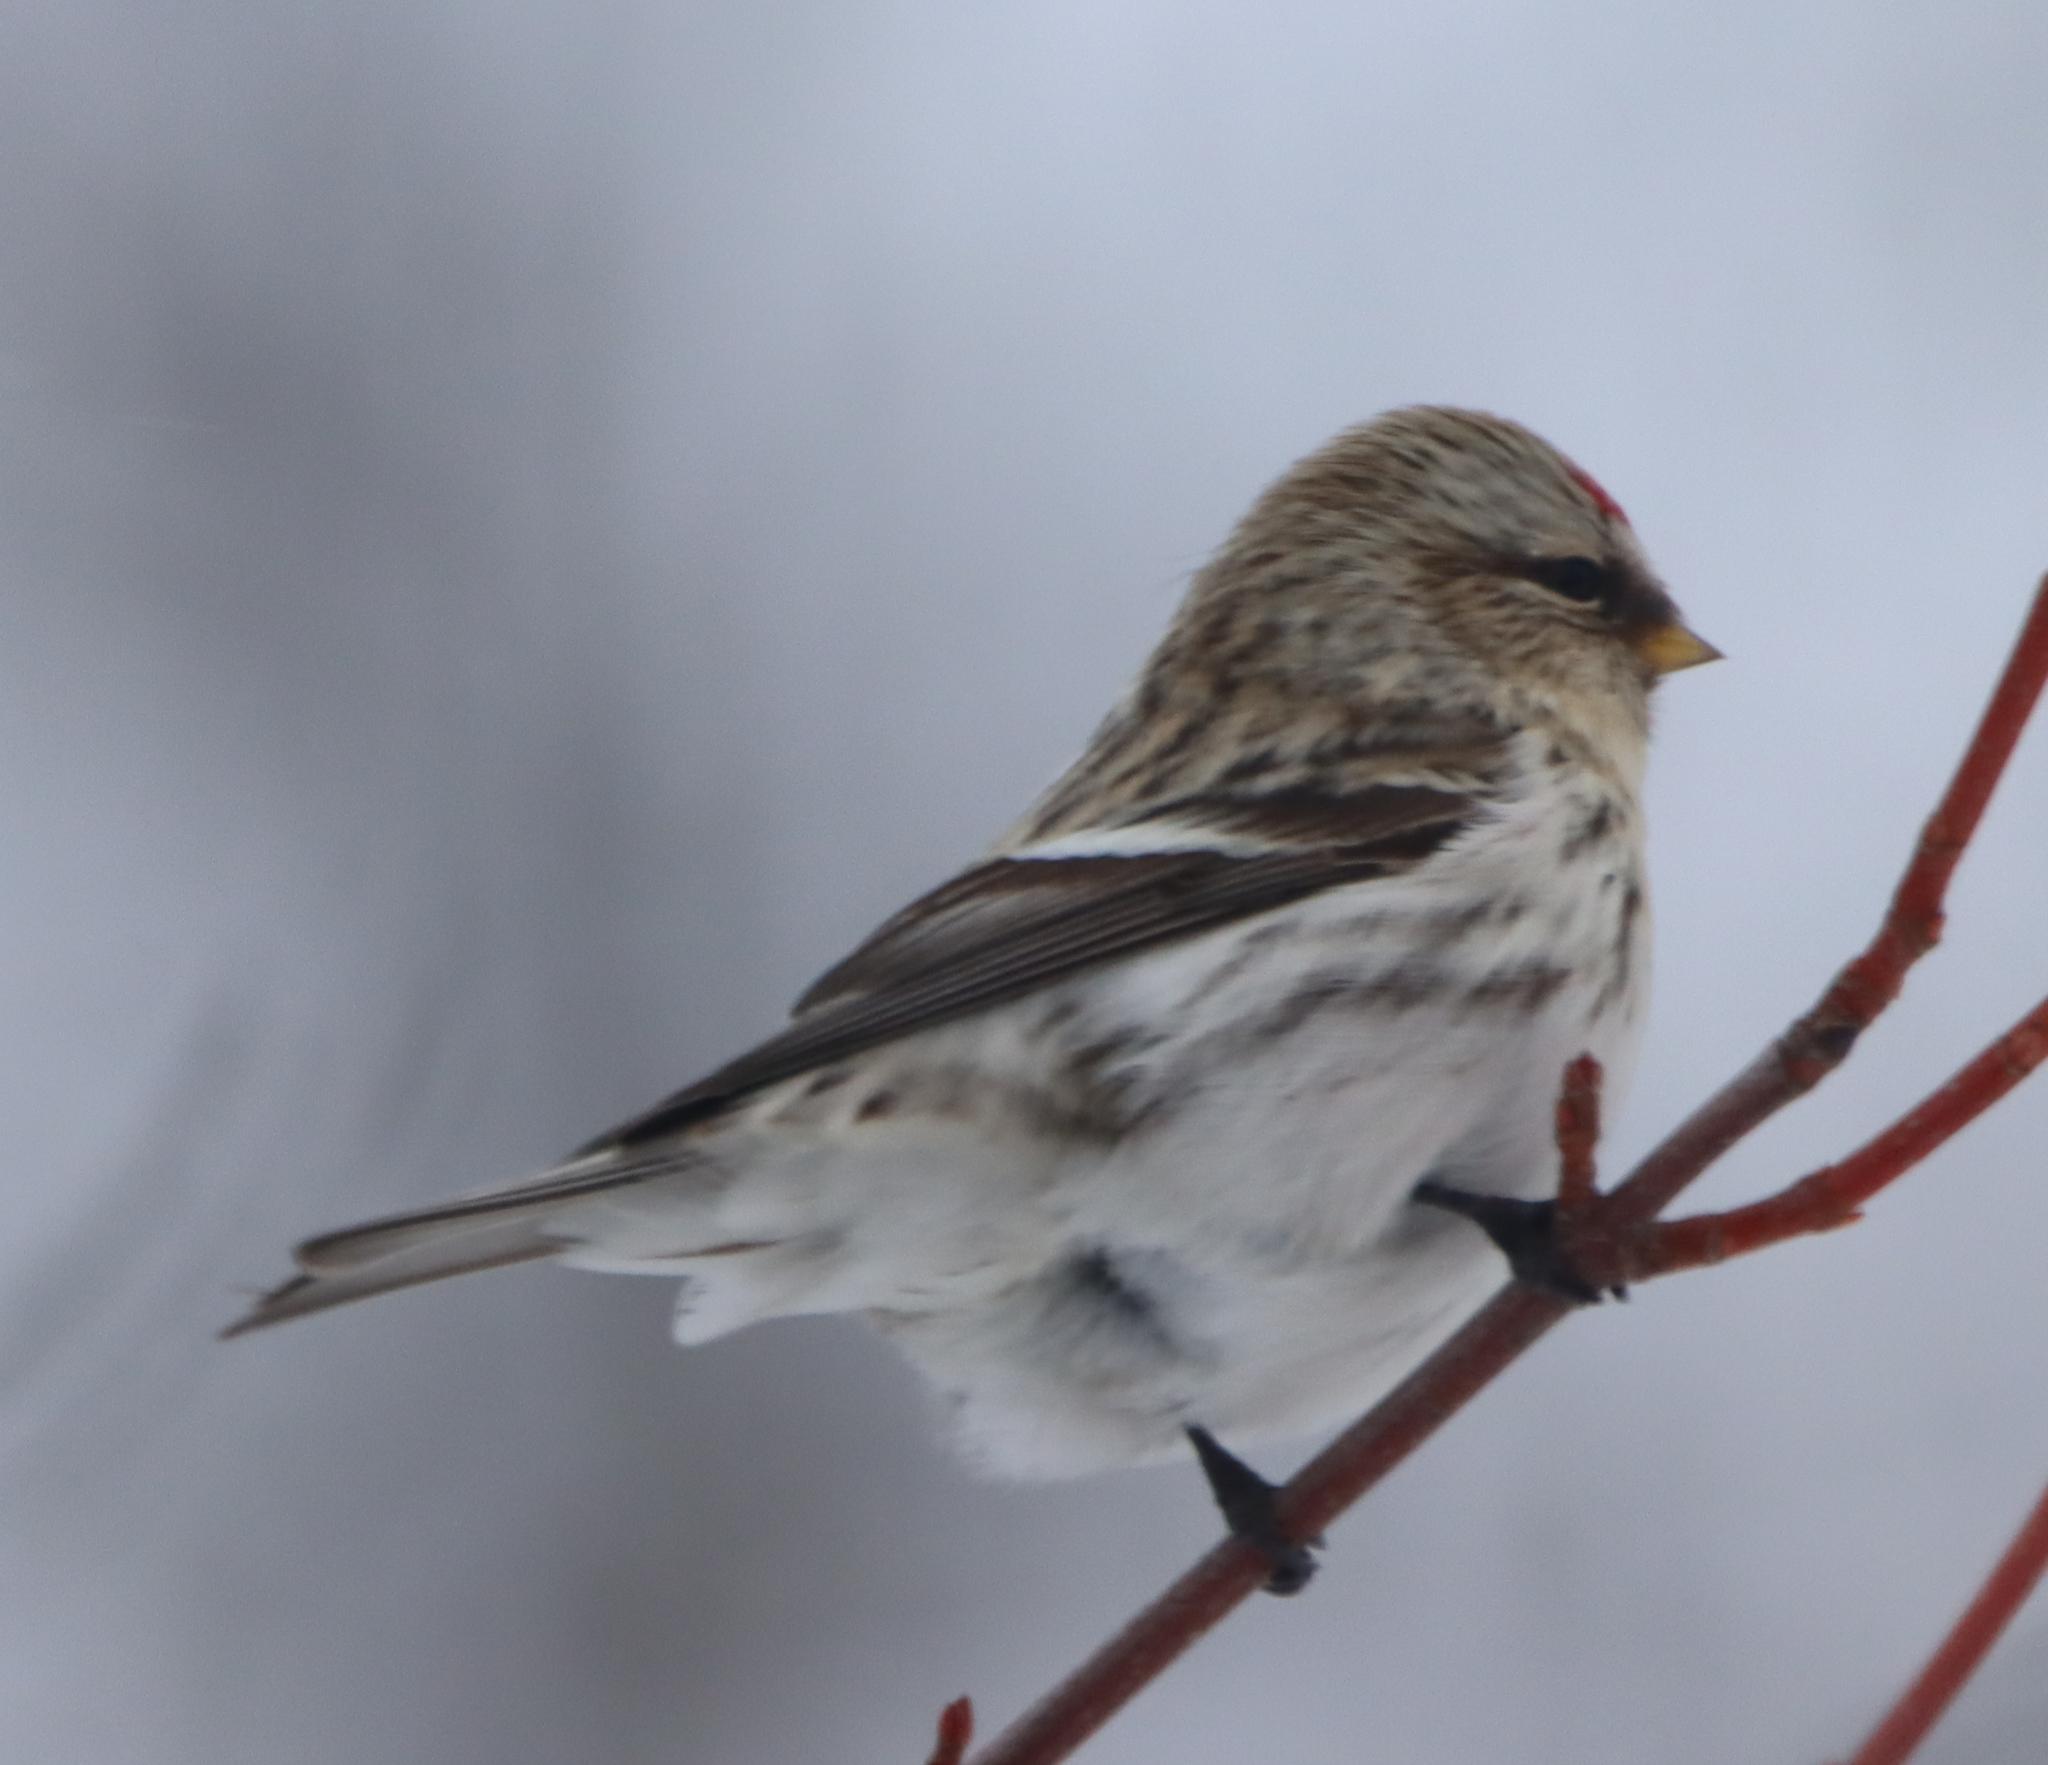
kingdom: Animalia
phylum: Chordata
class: Aves
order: Passeriformes
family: Fringillidae
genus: Acanthis
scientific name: Acanthis hornemanni
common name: Arctic redpoll
